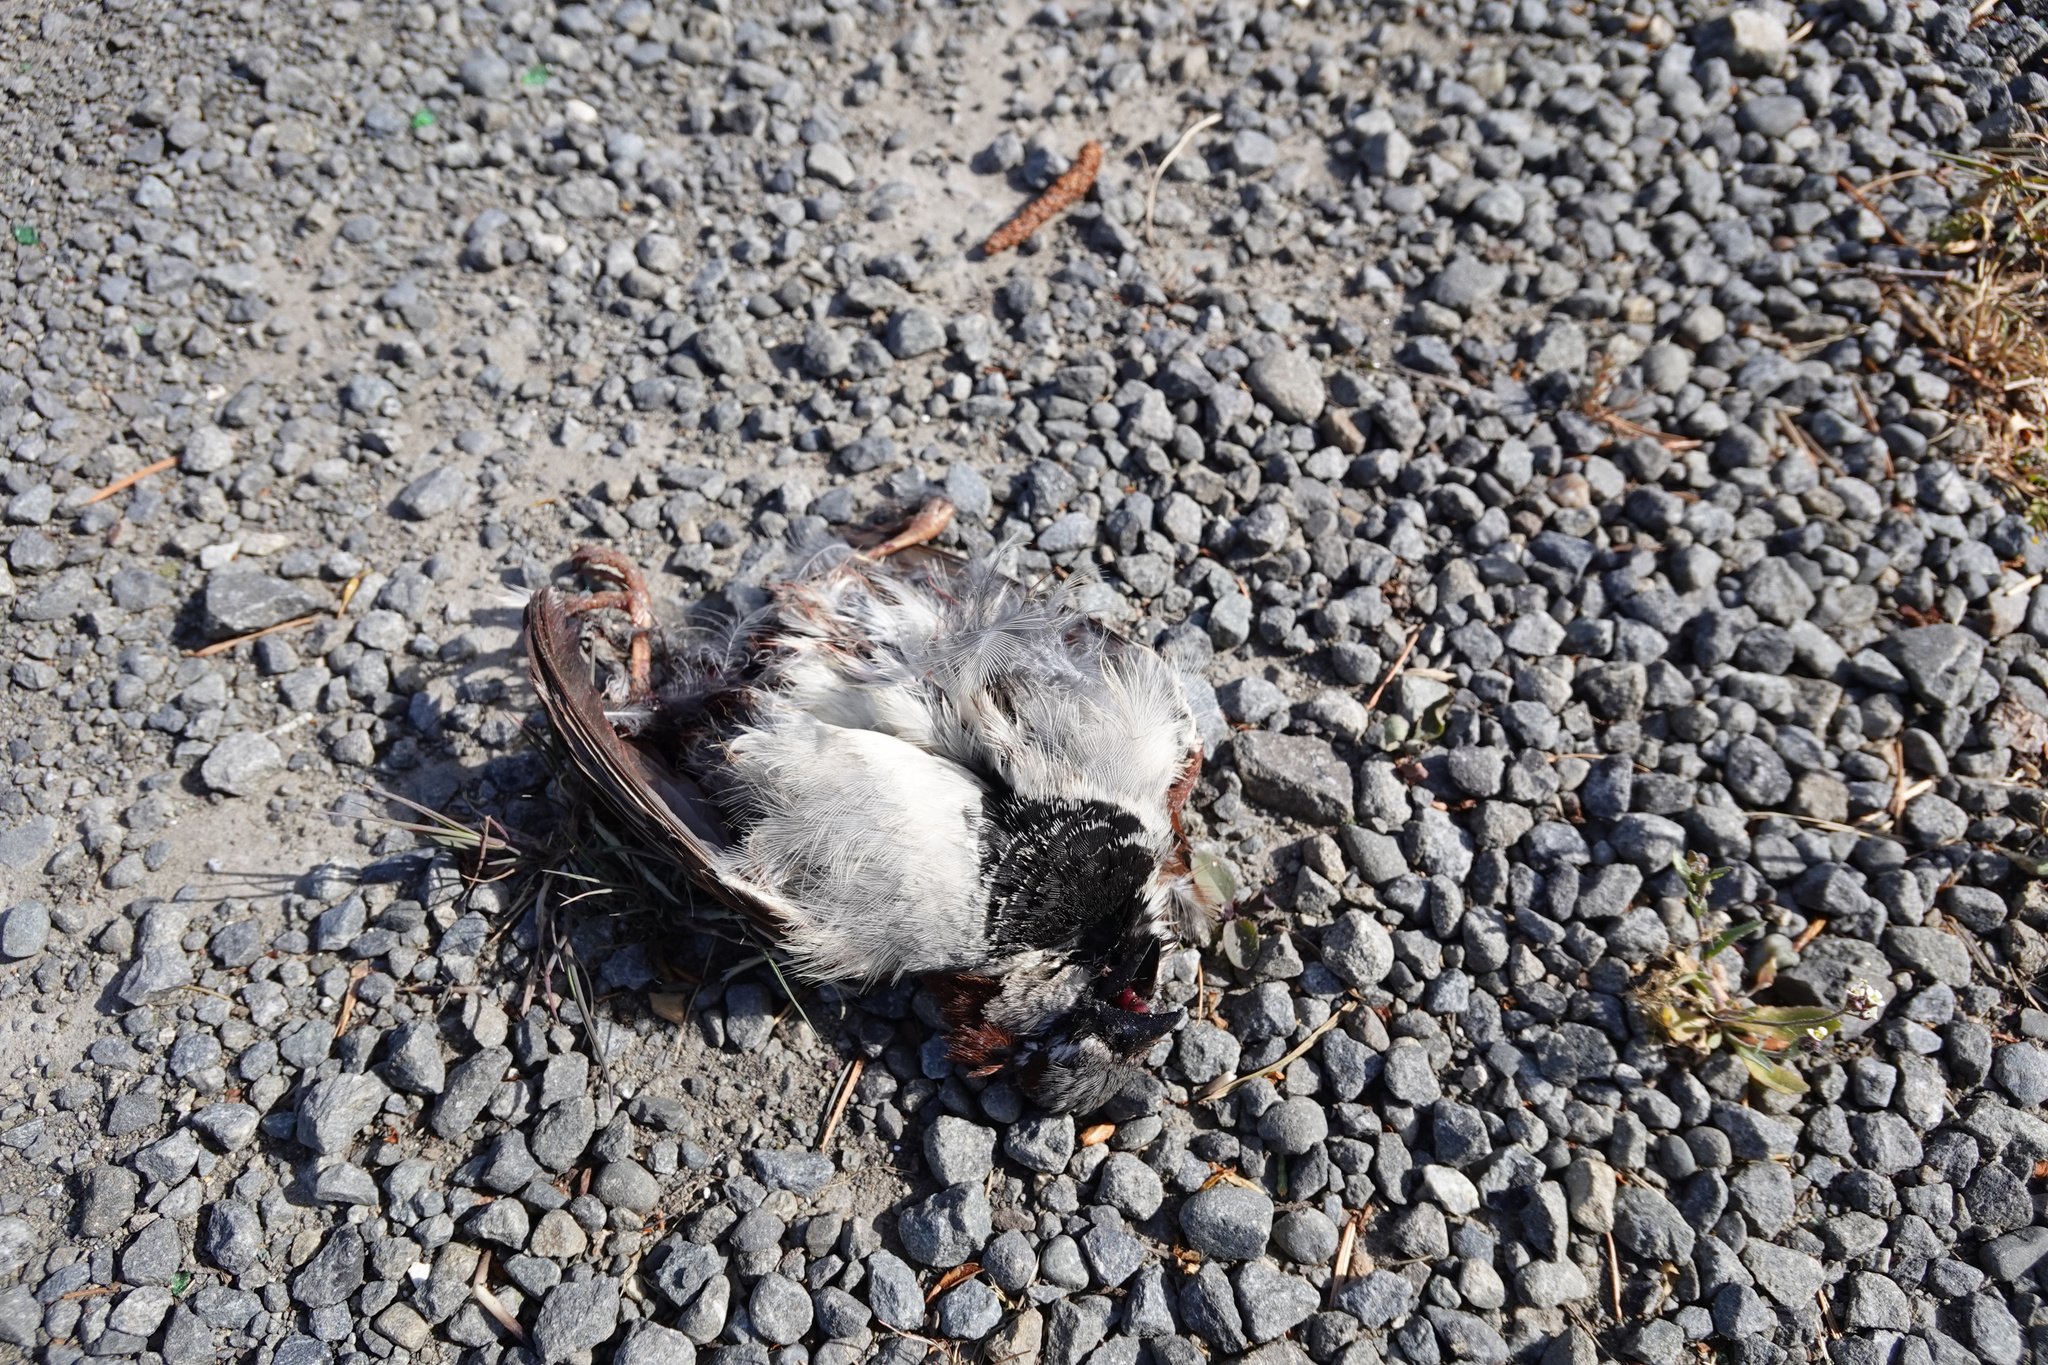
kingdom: Animalia
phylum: Chordata
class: Aves
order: Passeriformes
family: Passeridae
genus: Passer
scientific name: Passer domesticus
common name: House sparrow
